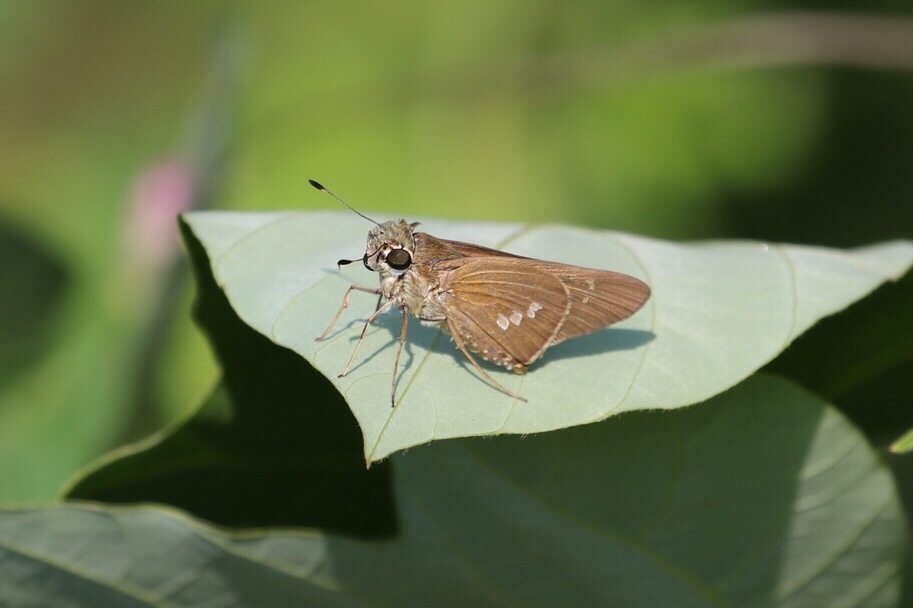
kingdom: Animalia
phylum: Arthropoda
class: Insecta
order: Lepidoptera
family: Hesperiidae
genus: Calpodes
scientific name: Calpodes ethlius
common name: Brazilian skipper
